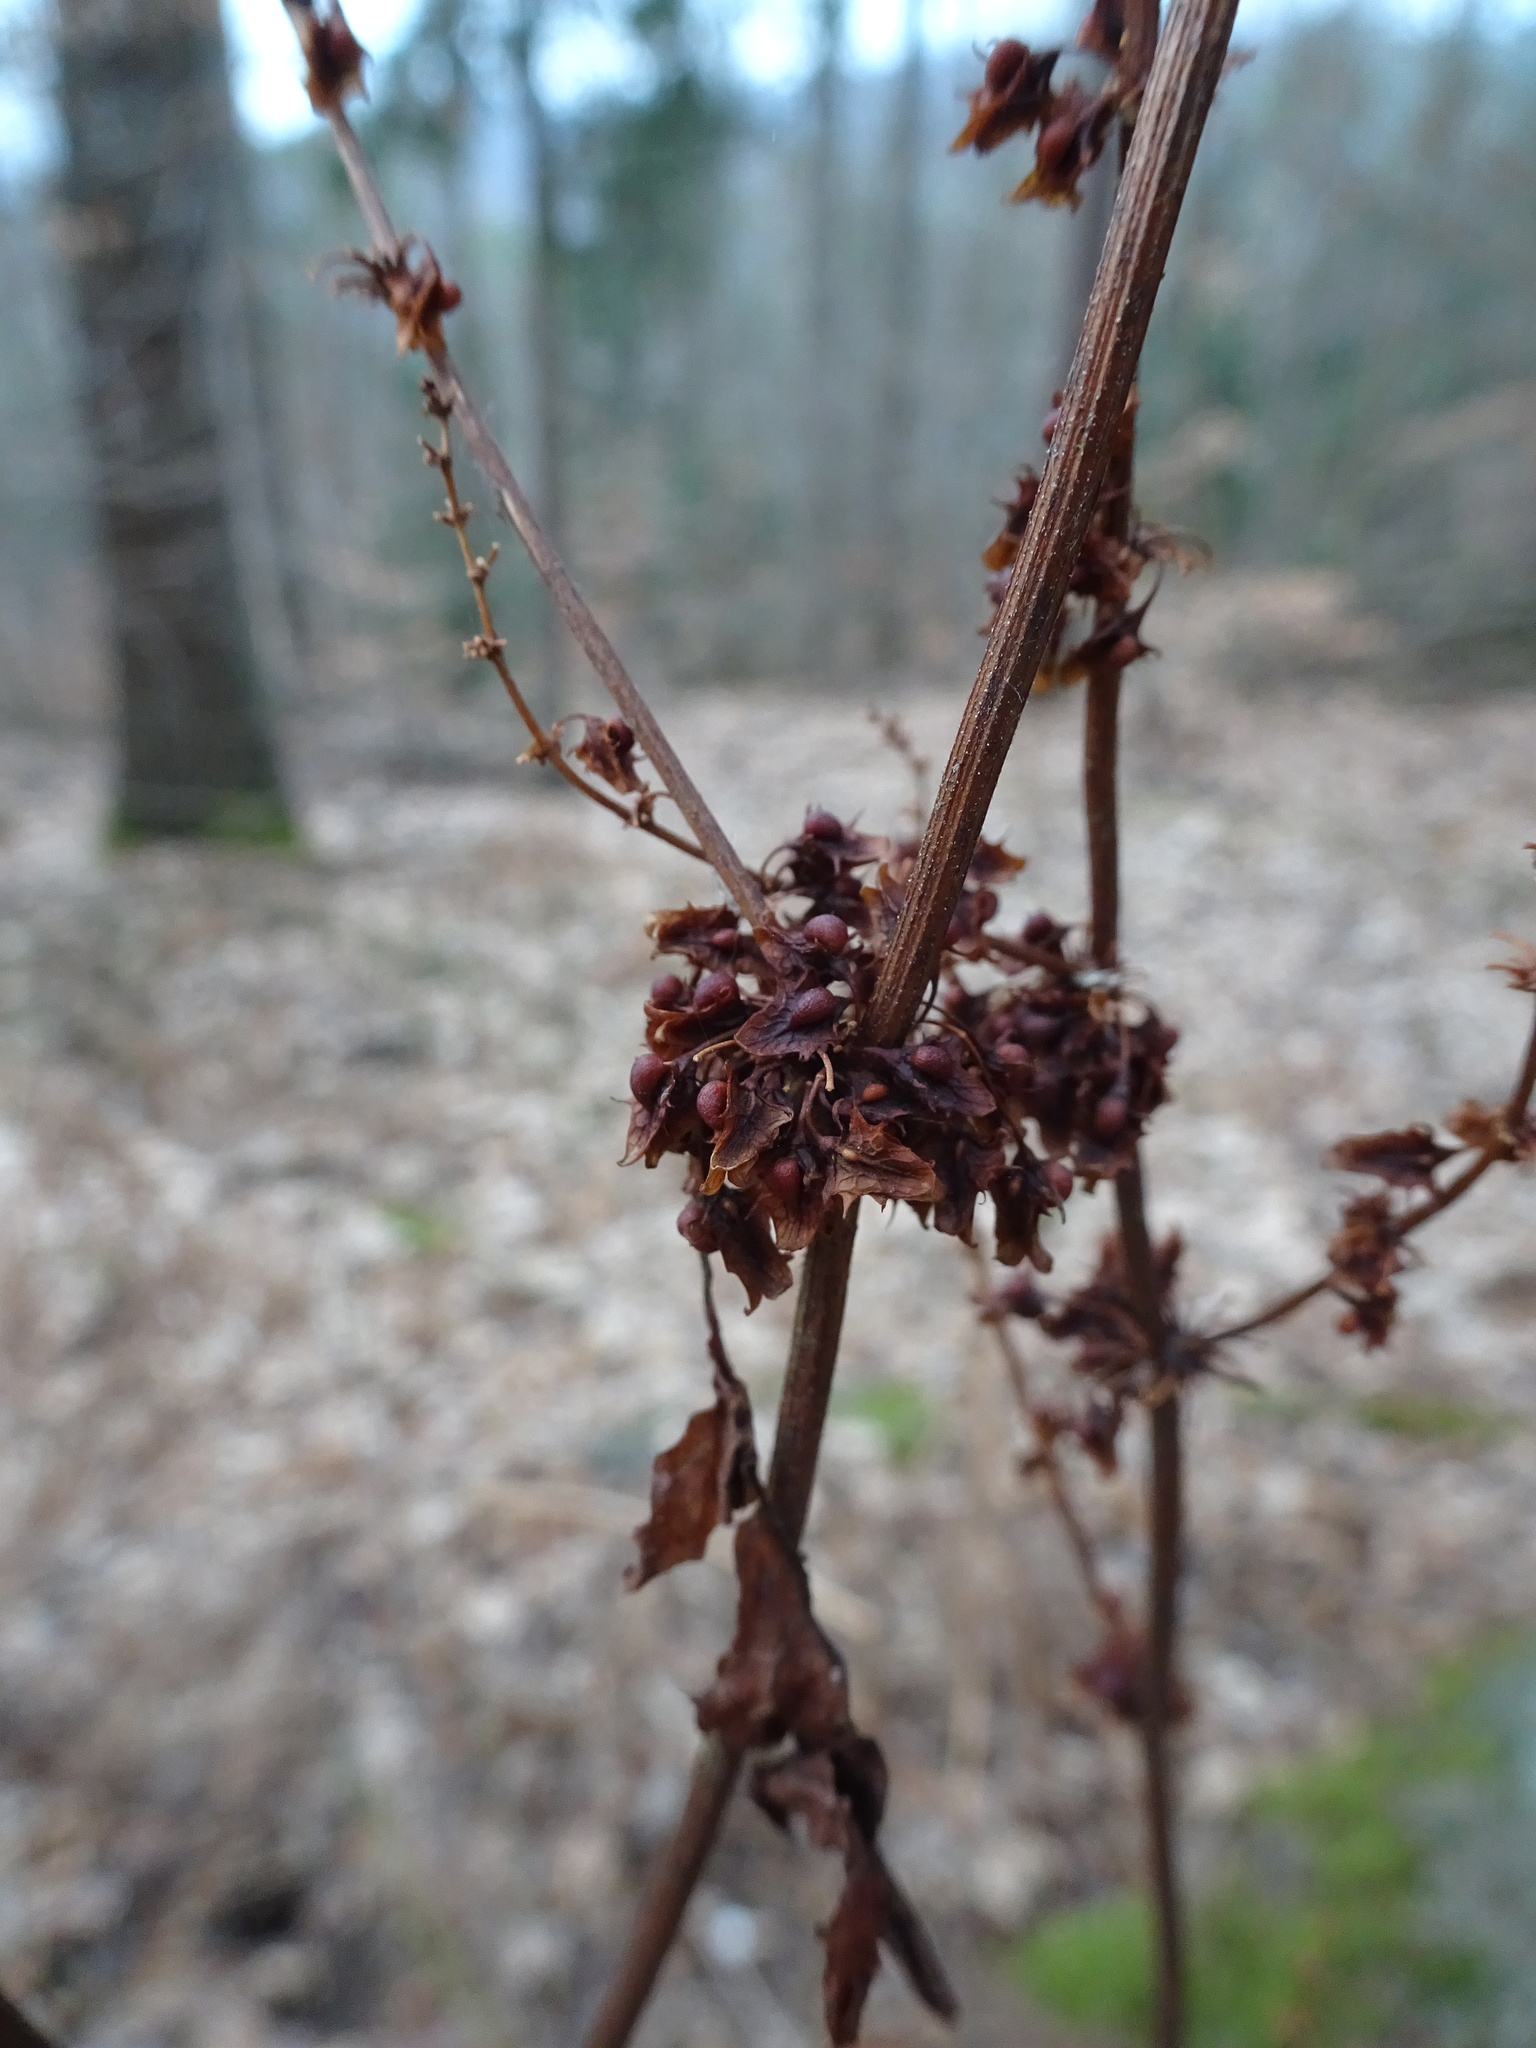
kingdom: Plantae
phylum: Tracheophyta
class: Magnoliopsida
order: Caryophyllales
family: Polygonaceae
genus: Rumex
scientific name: Rumex obtusifolius
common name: Bitter dock
